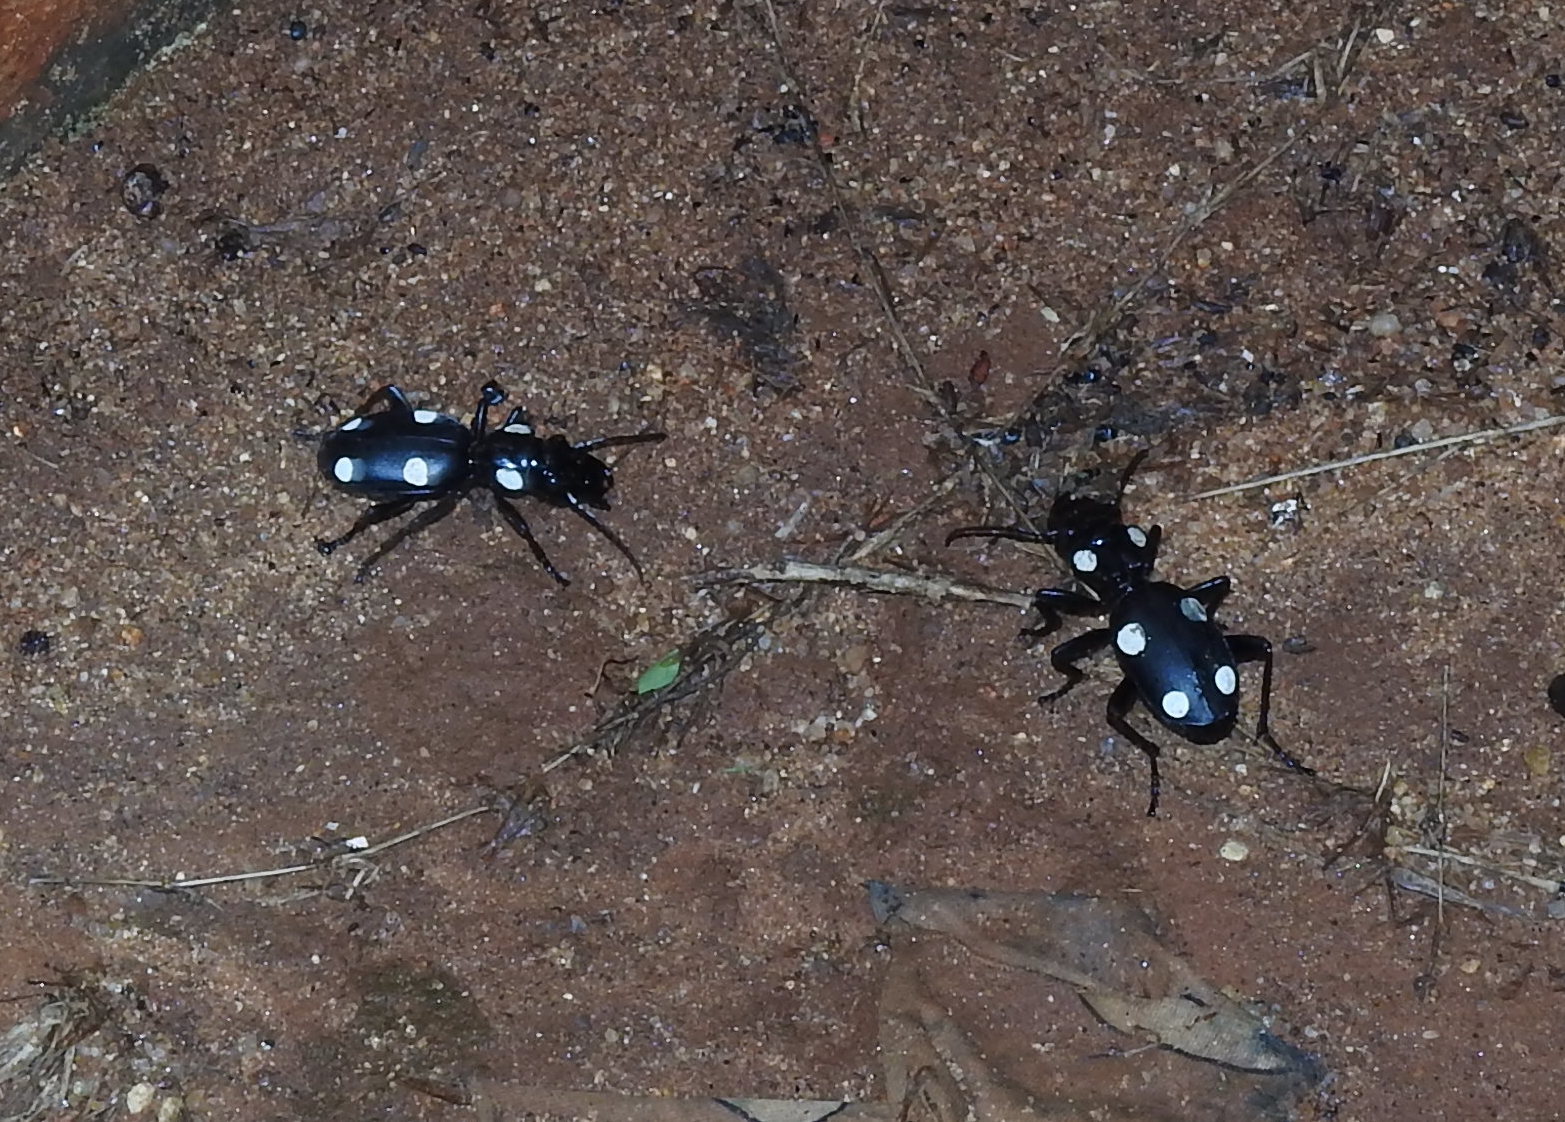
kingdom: Animalia
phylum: Arthropoda
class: Insecta
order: Coleoptera
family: Carabidae
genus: Anthia
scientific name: Anthia sexguttata
